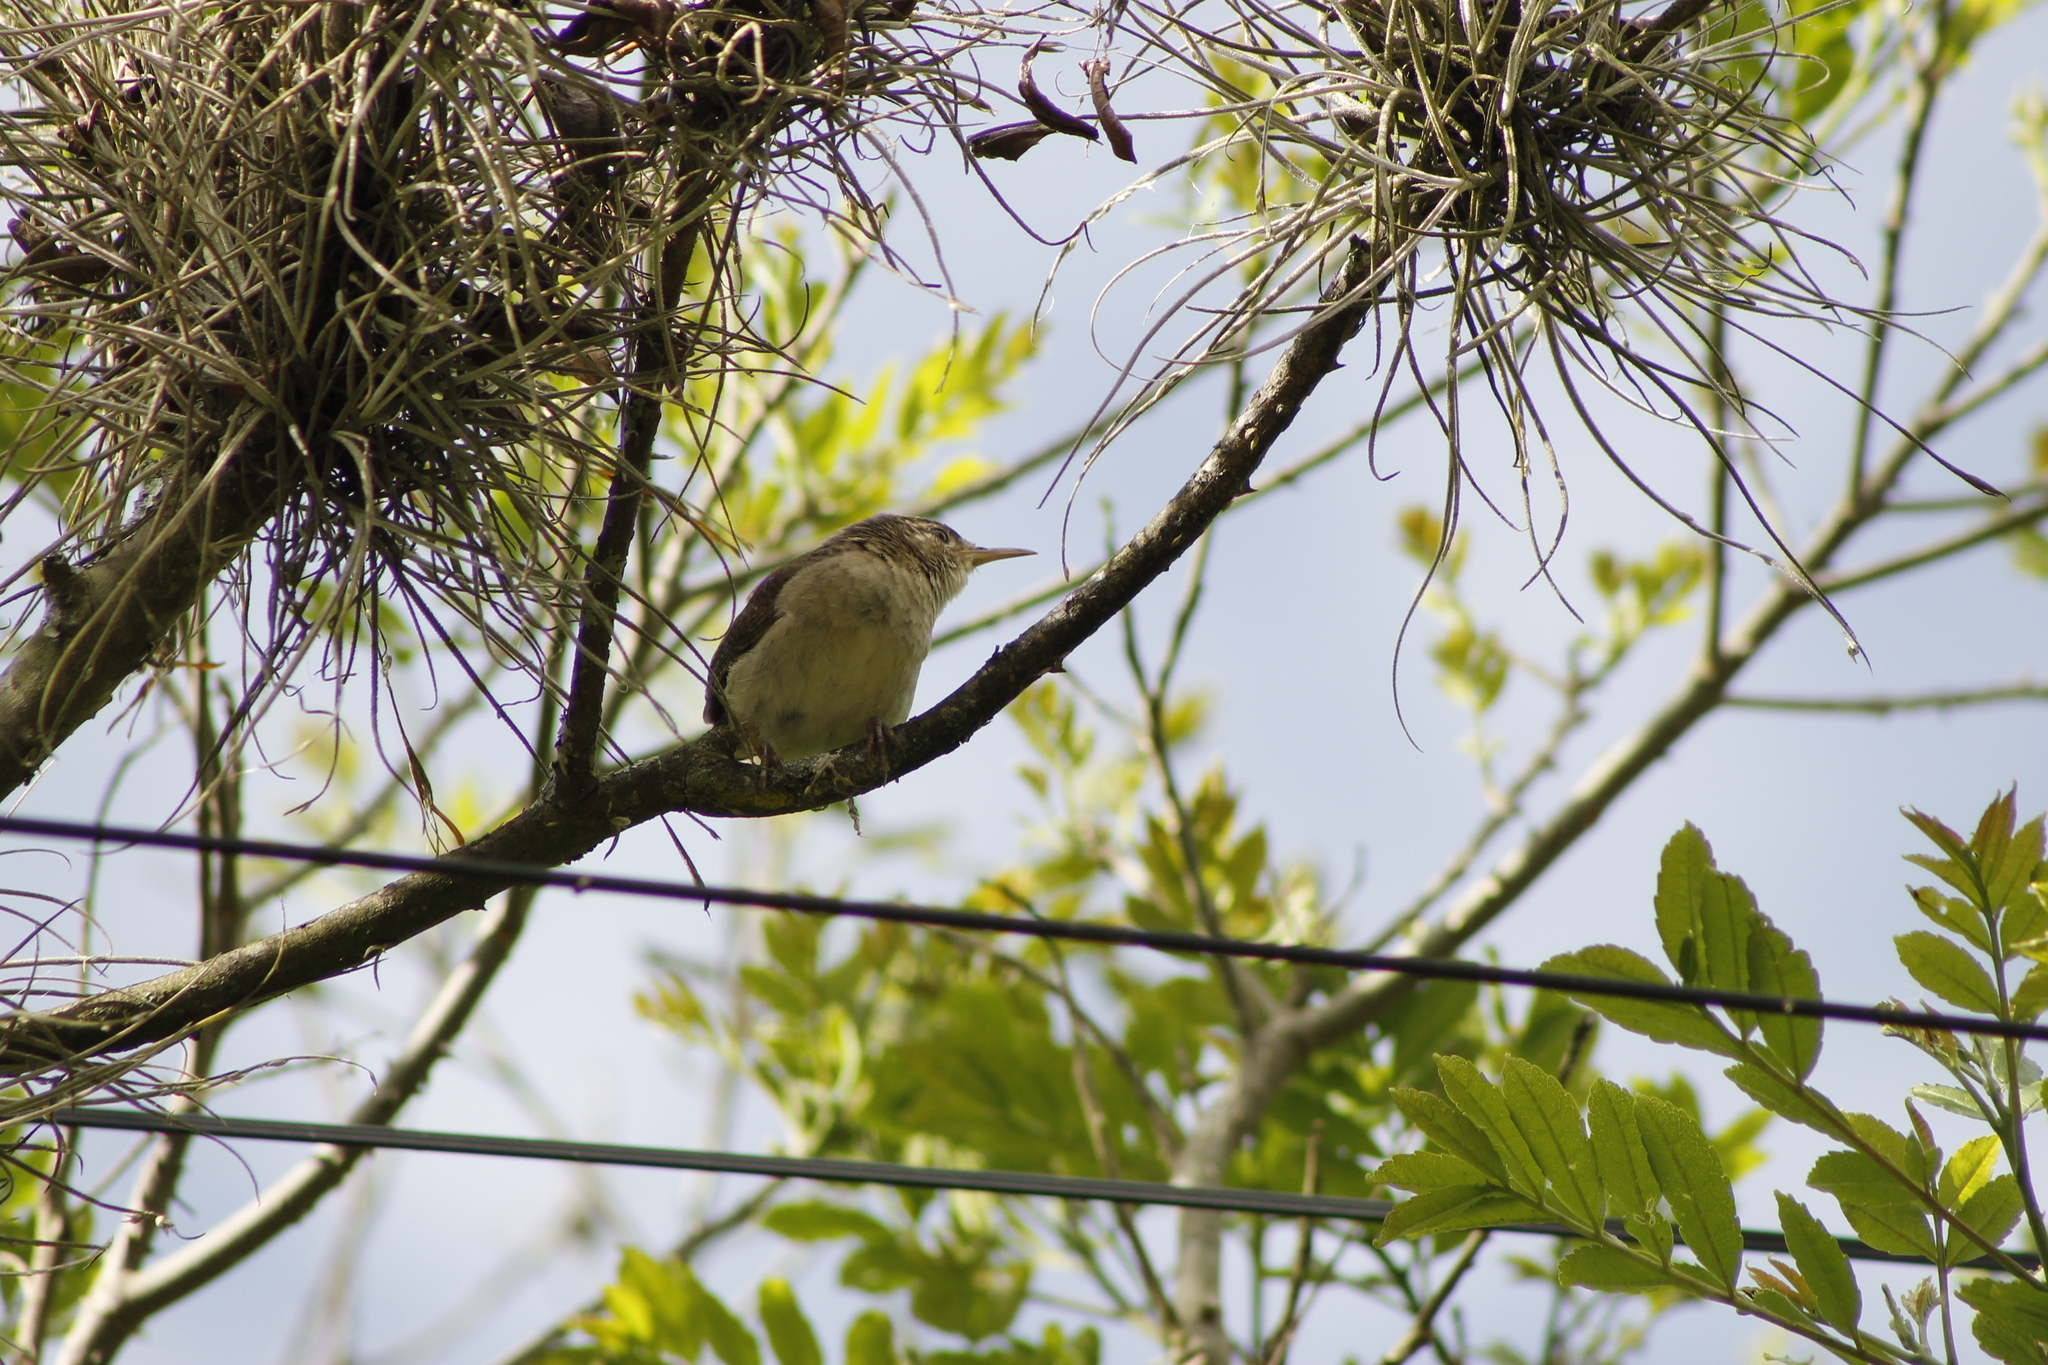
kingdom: Animalia
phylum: Chordata
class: Aves
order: Passeriformes
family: Troglodytidae
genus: Troglodytes
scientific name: Troglodytes aedon
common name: House wren
